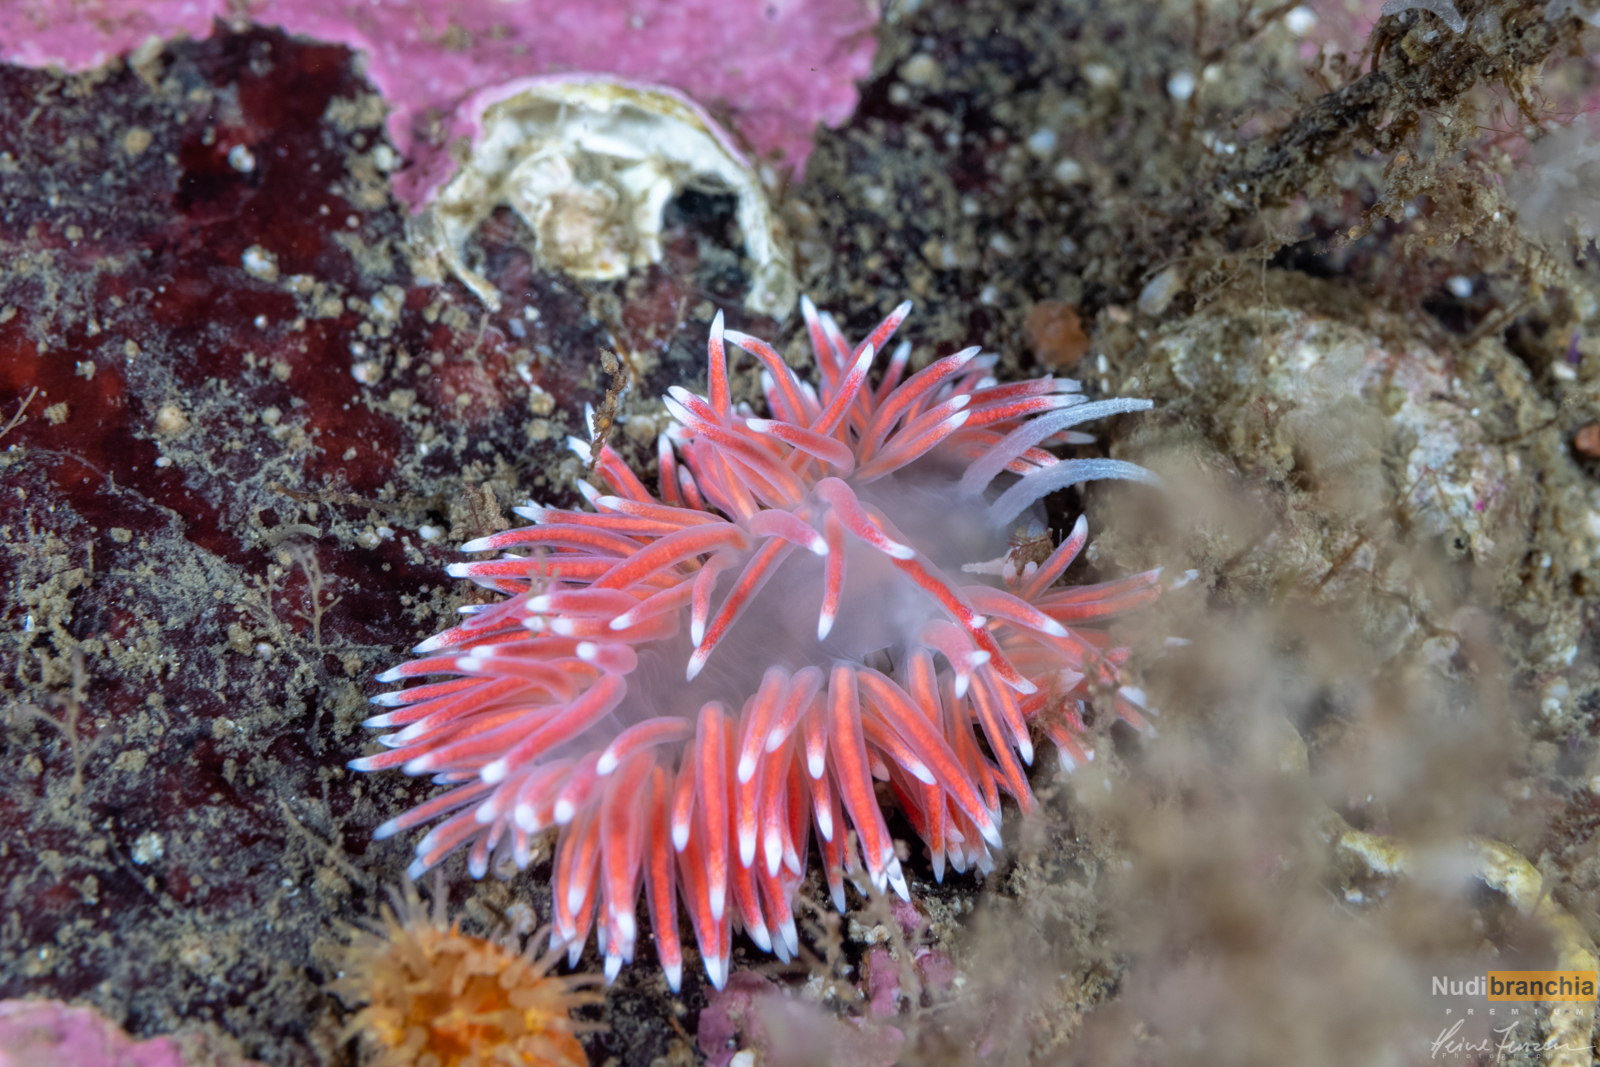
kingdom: Animalia
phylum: Mollusca
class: Gastropoda
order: Nudibranchia
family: Flabellinidae
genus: Carronella
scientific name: Carronella pellucida
